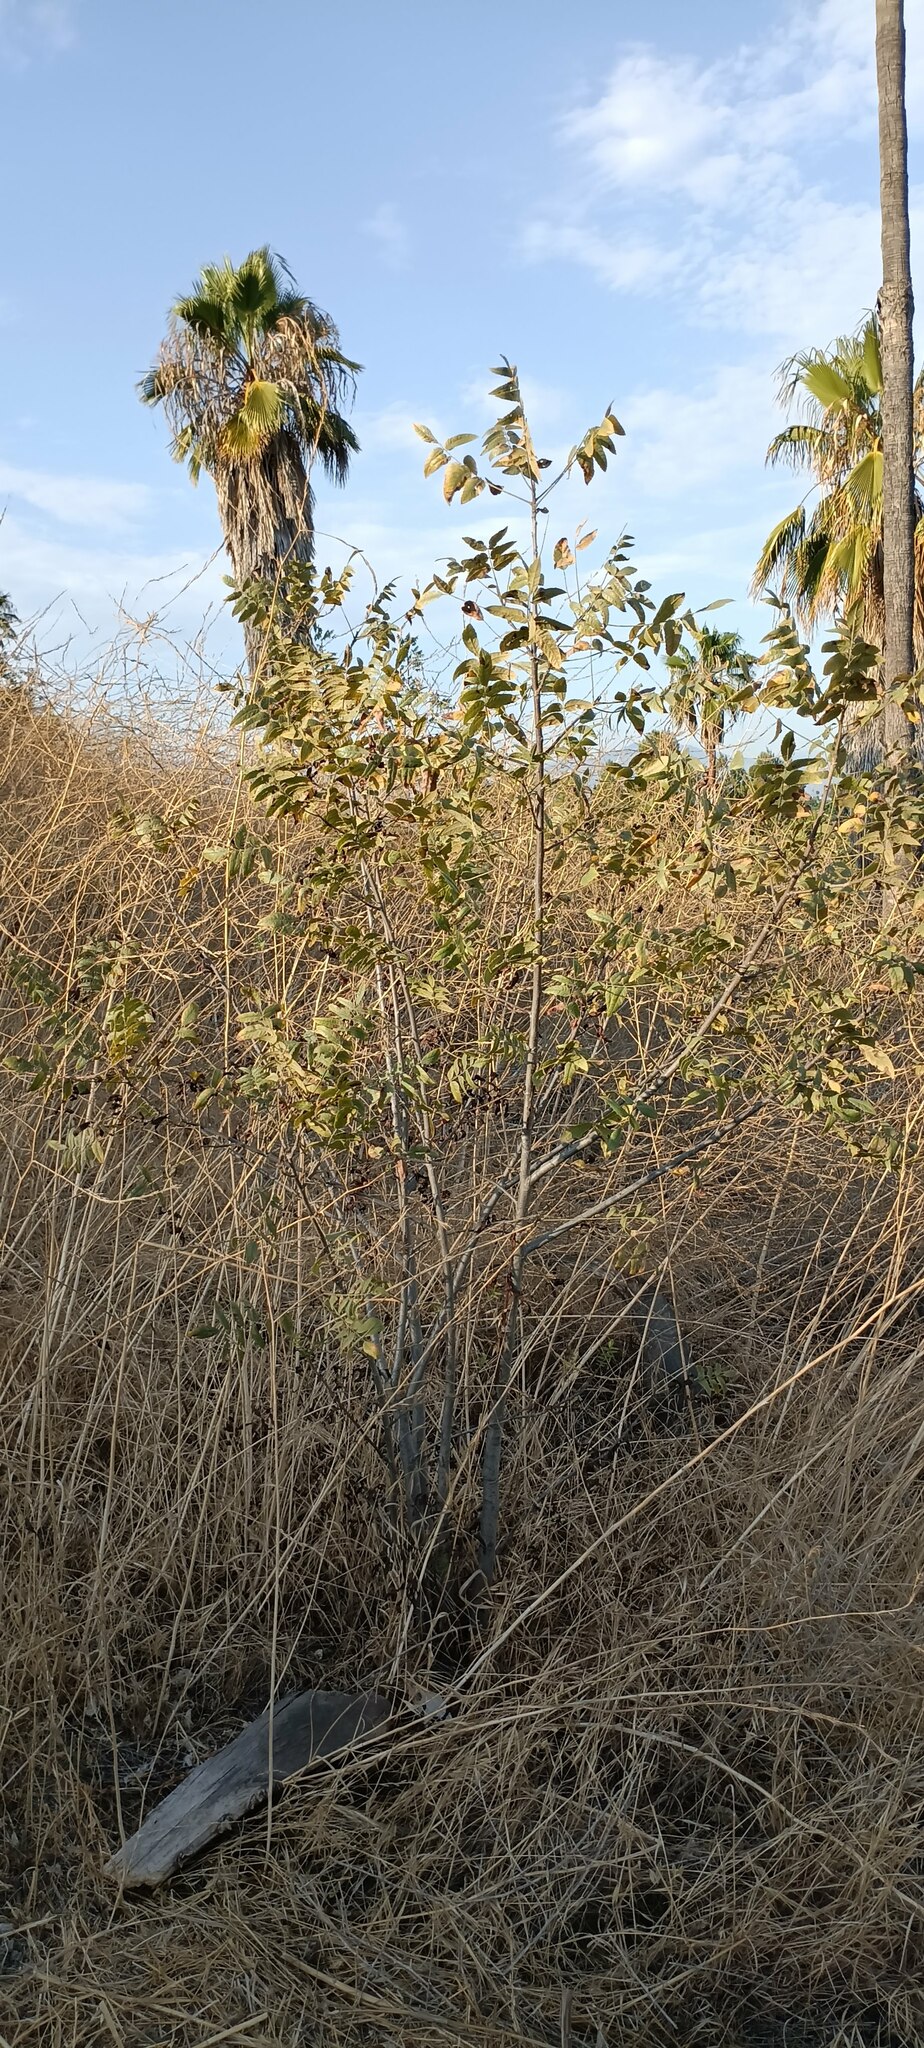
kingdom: Plantae
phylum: Tracheophyta
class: Magnoliopsida
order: Fagales
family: Juglandaceae
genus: Juglans
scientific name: Juglans californica
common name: Southern california black walnut
